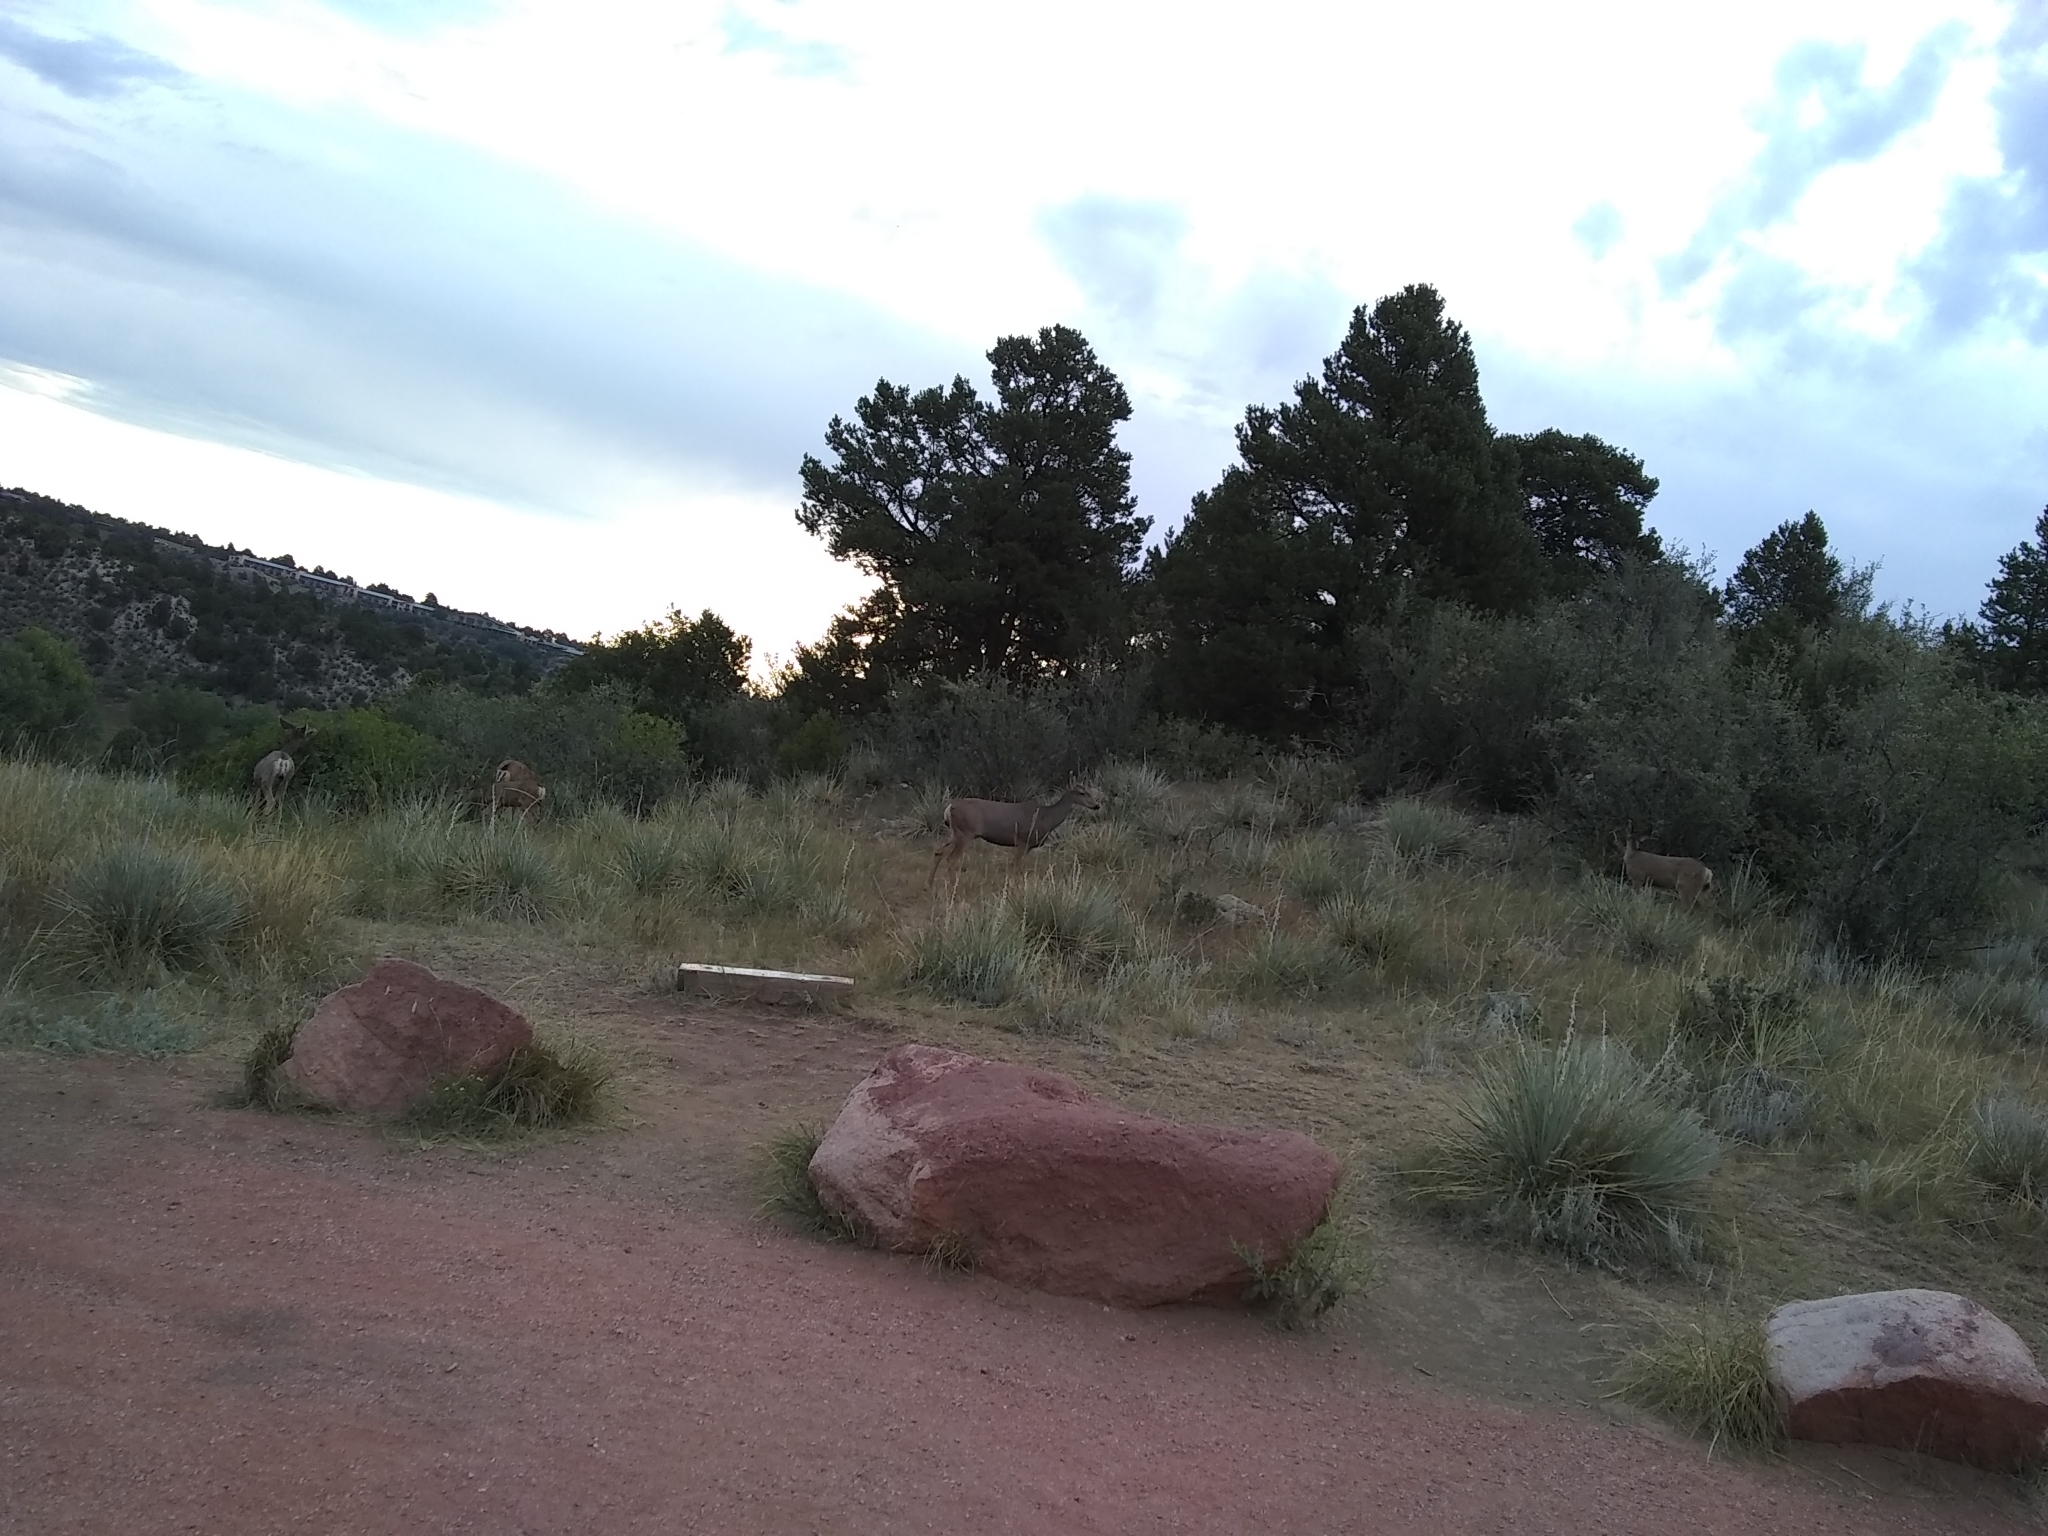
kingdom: Animalia
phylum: Chordata
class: Mammalia
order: Artiodactyla
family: Cervidae
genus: Odocoileus
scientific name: Odocoileus hemionus
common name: Mule deer
